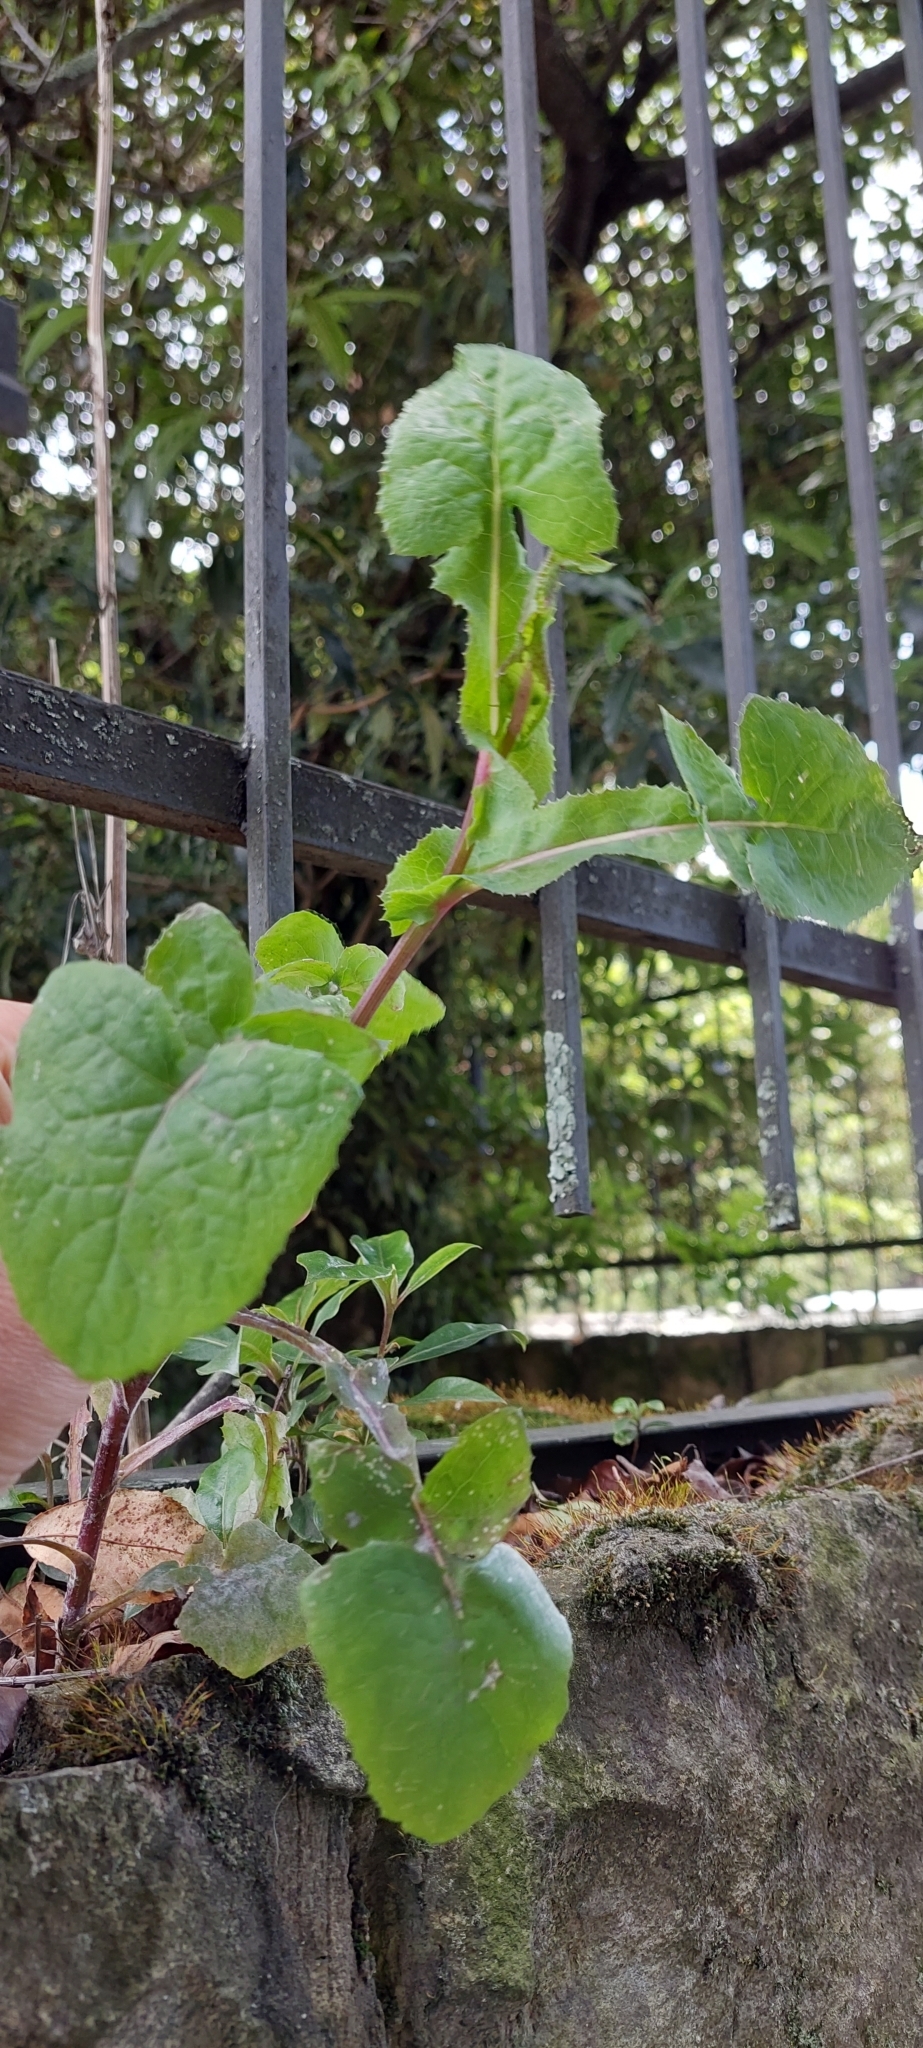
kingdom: Plantae
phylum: Tracheophyta
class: Magnoliopsida
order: Asterales
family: Asteraceae
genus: Sonchus
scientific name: Sonchus oleraceus
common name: Common sowthistle
